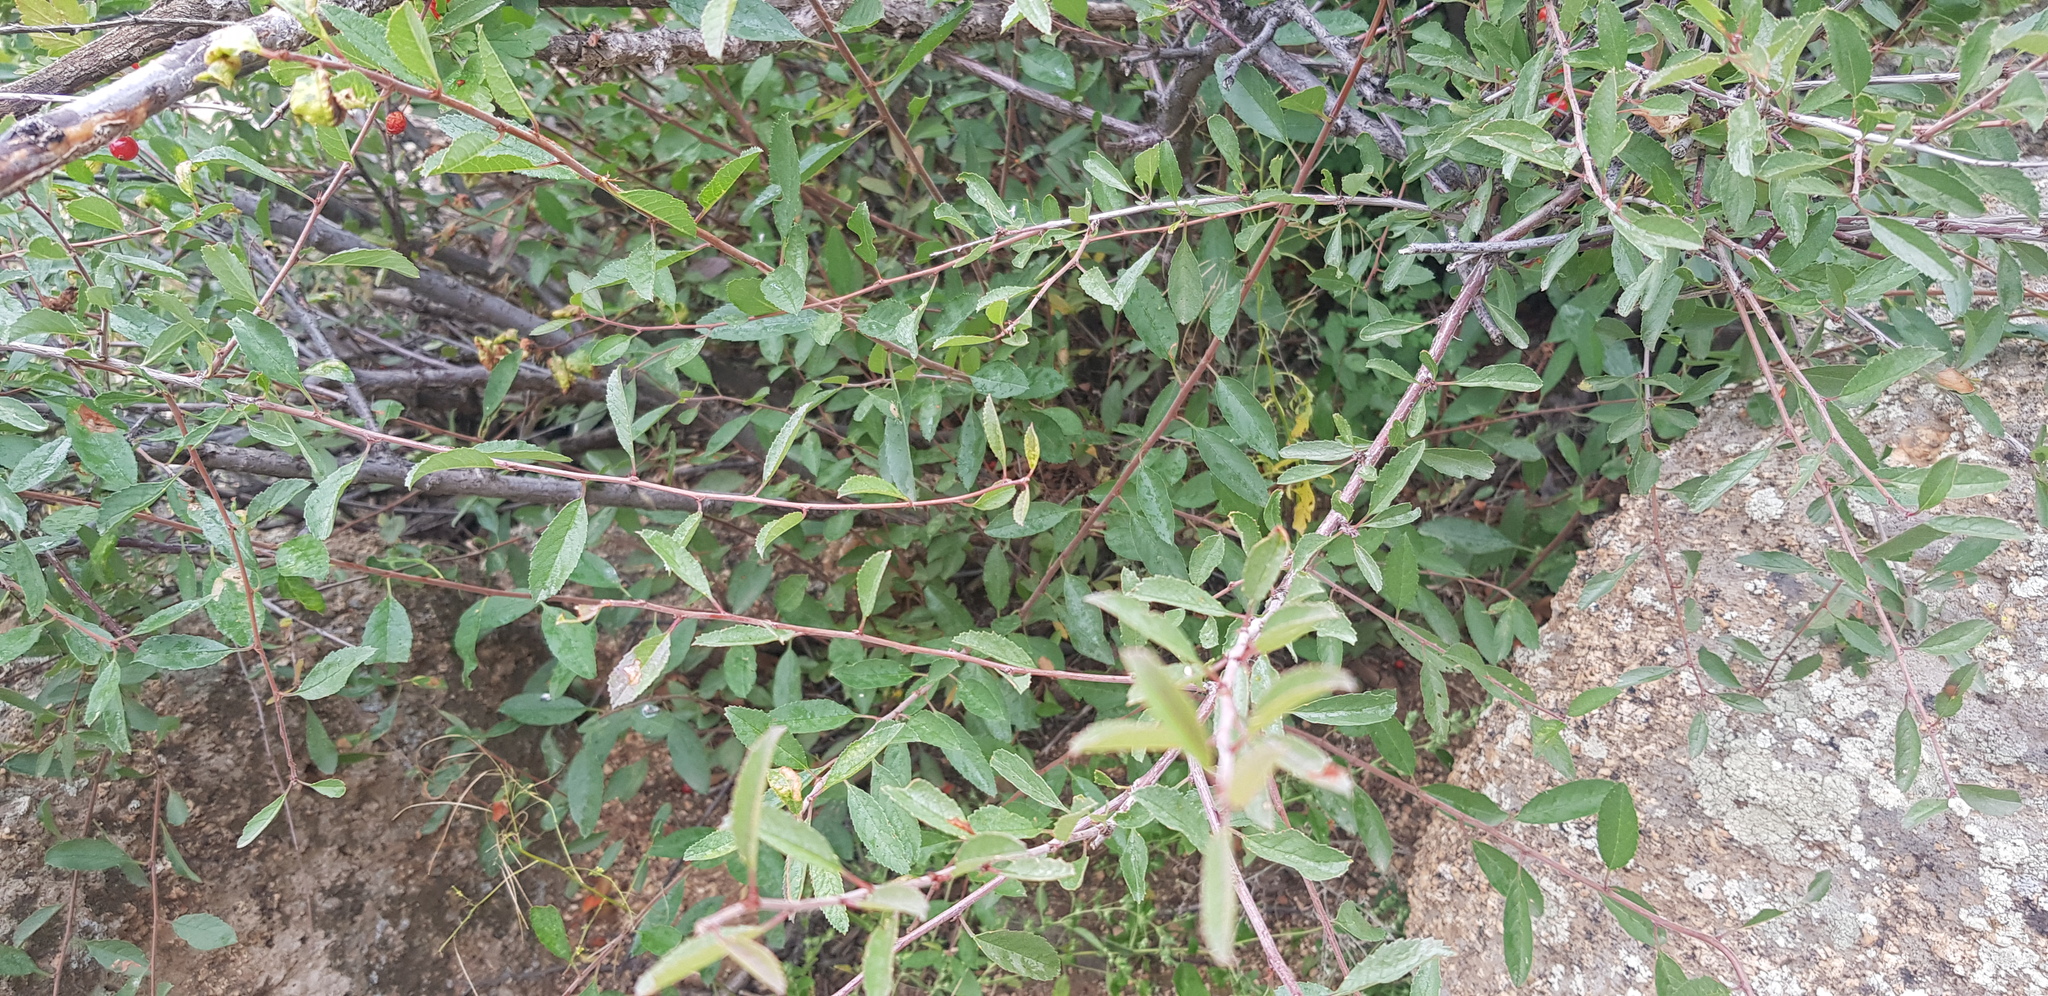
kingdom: Plantae
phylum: Tracheophyta
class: Magnoliopsida
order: Rosales
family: Rosaceae
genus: Prunus
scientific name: Prunus pedunculata
